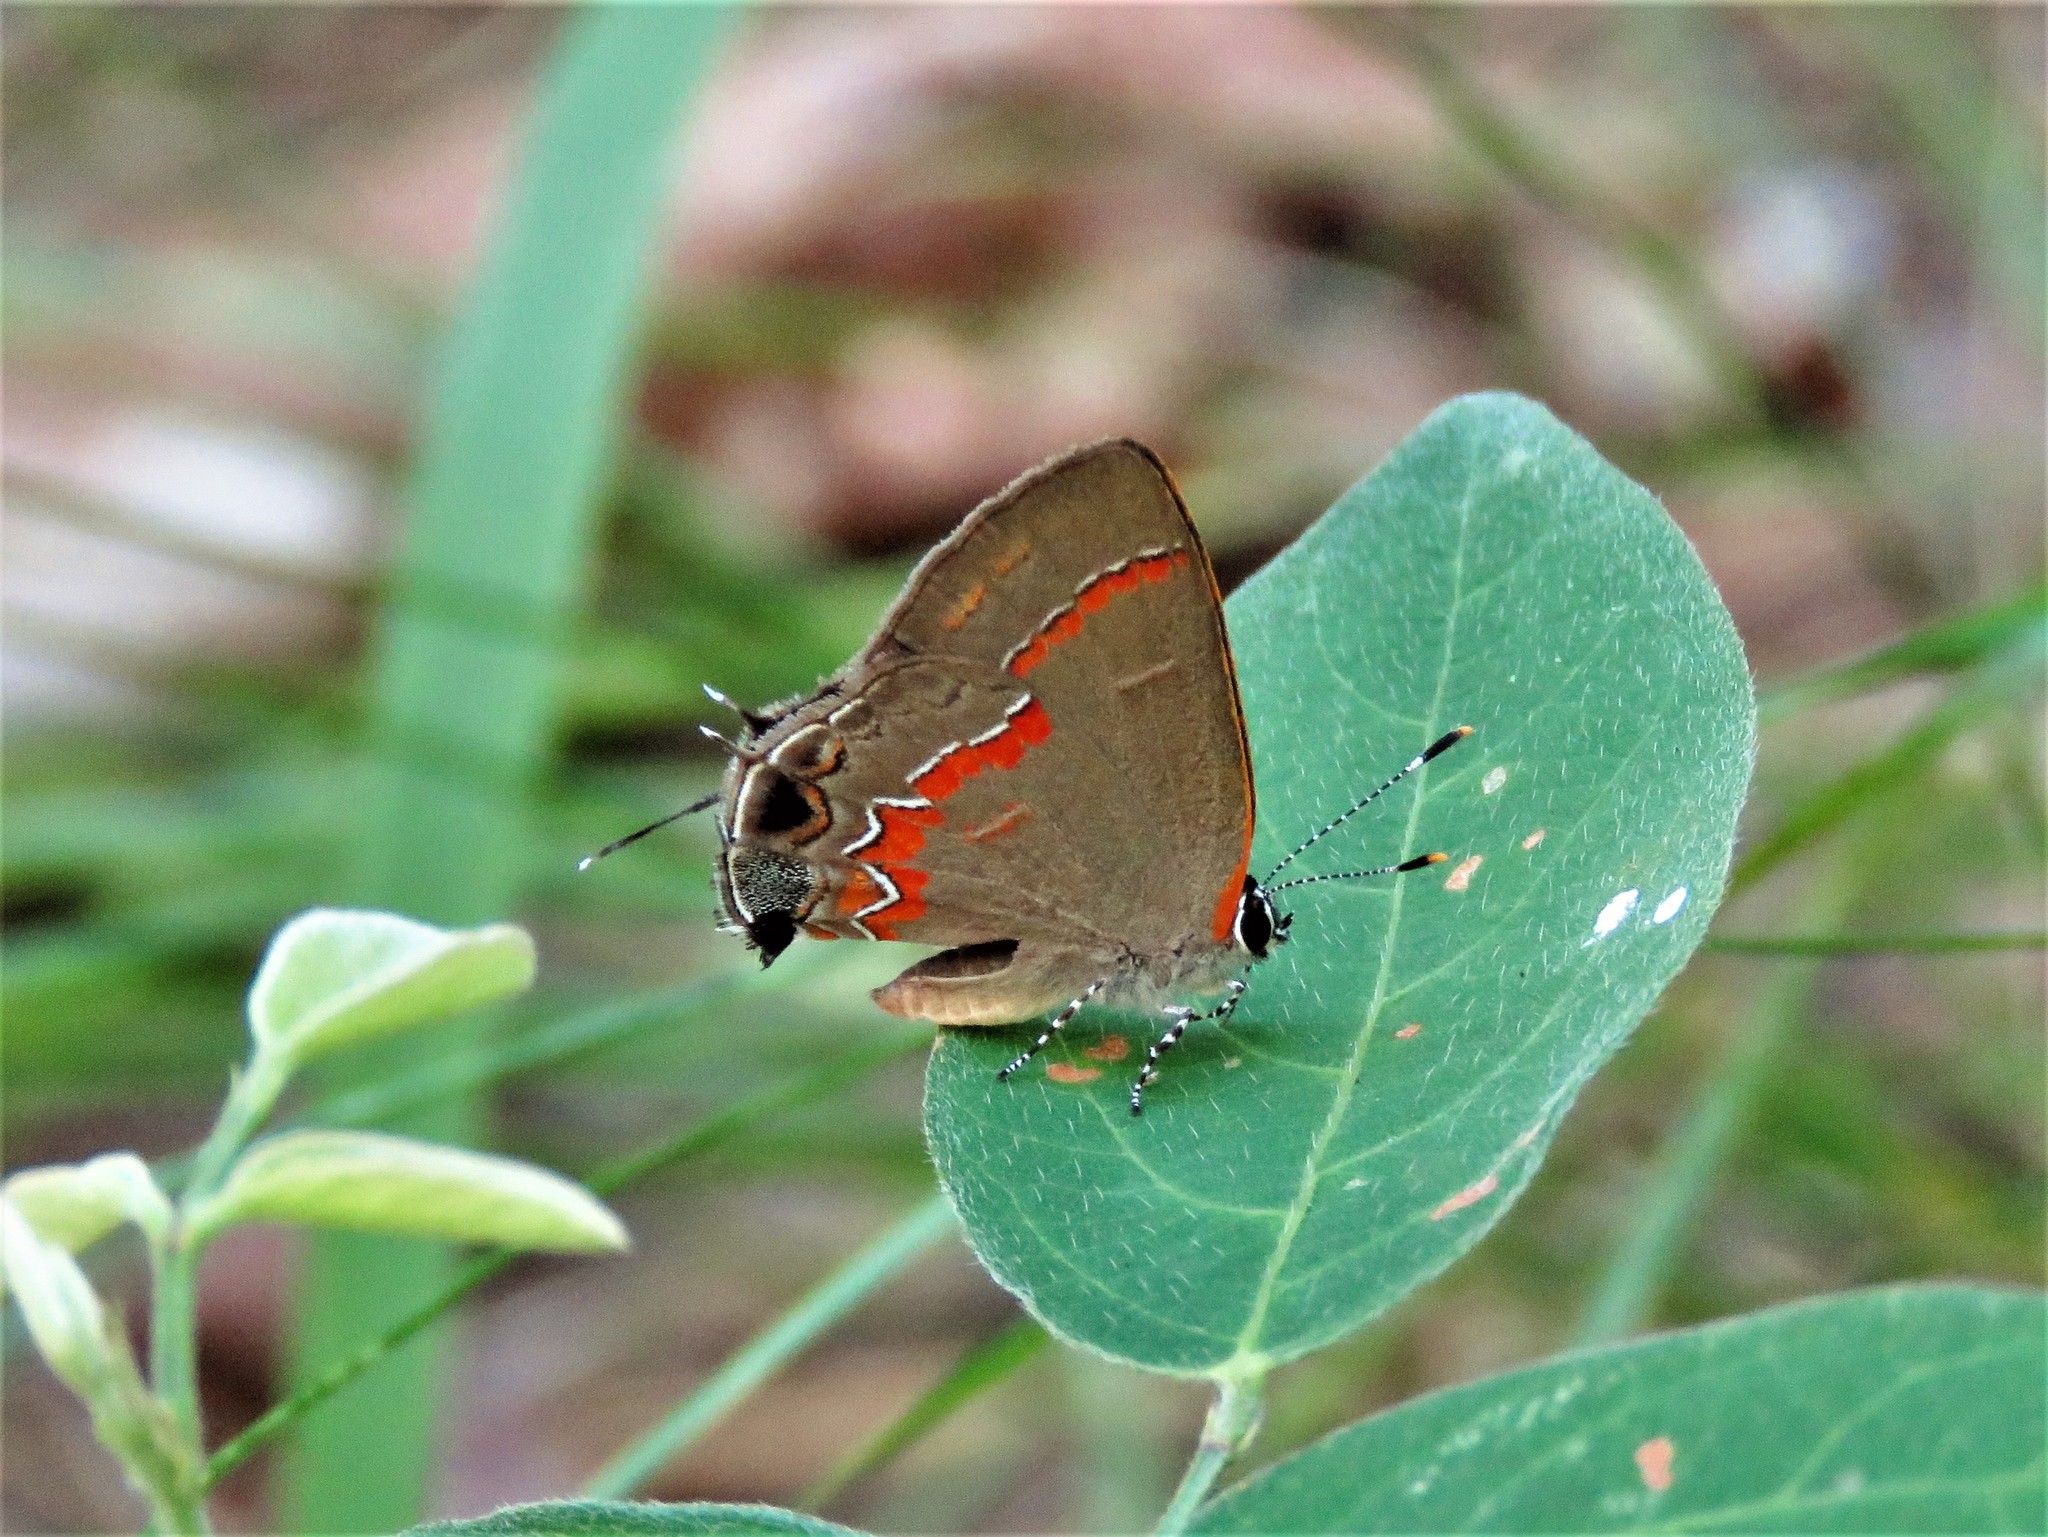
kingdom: Animalia
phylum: Arthropoda
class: Insecta
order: Lepidoptera
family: Lycaenidae
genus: Calycopis
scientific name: Calycopis cecrops
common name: Red-banded hairstreak
